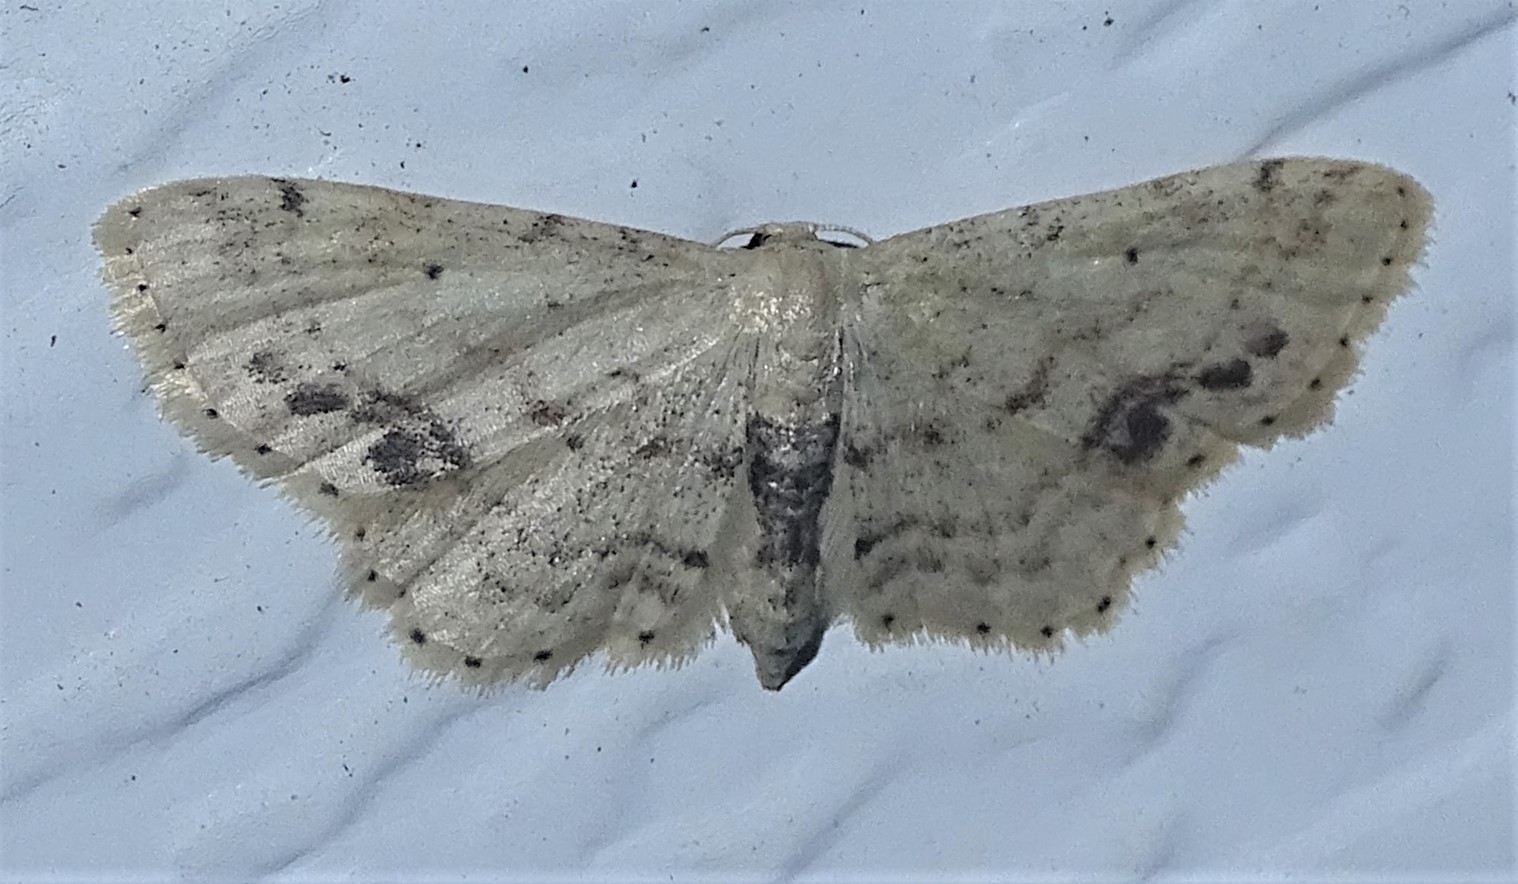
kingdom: Animalia
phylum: Arthropoda
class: Insecta
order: Lepidoptera
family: Geometridae
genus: Idaea
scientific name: Idaea dimidiata
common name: Single-dotted wave
